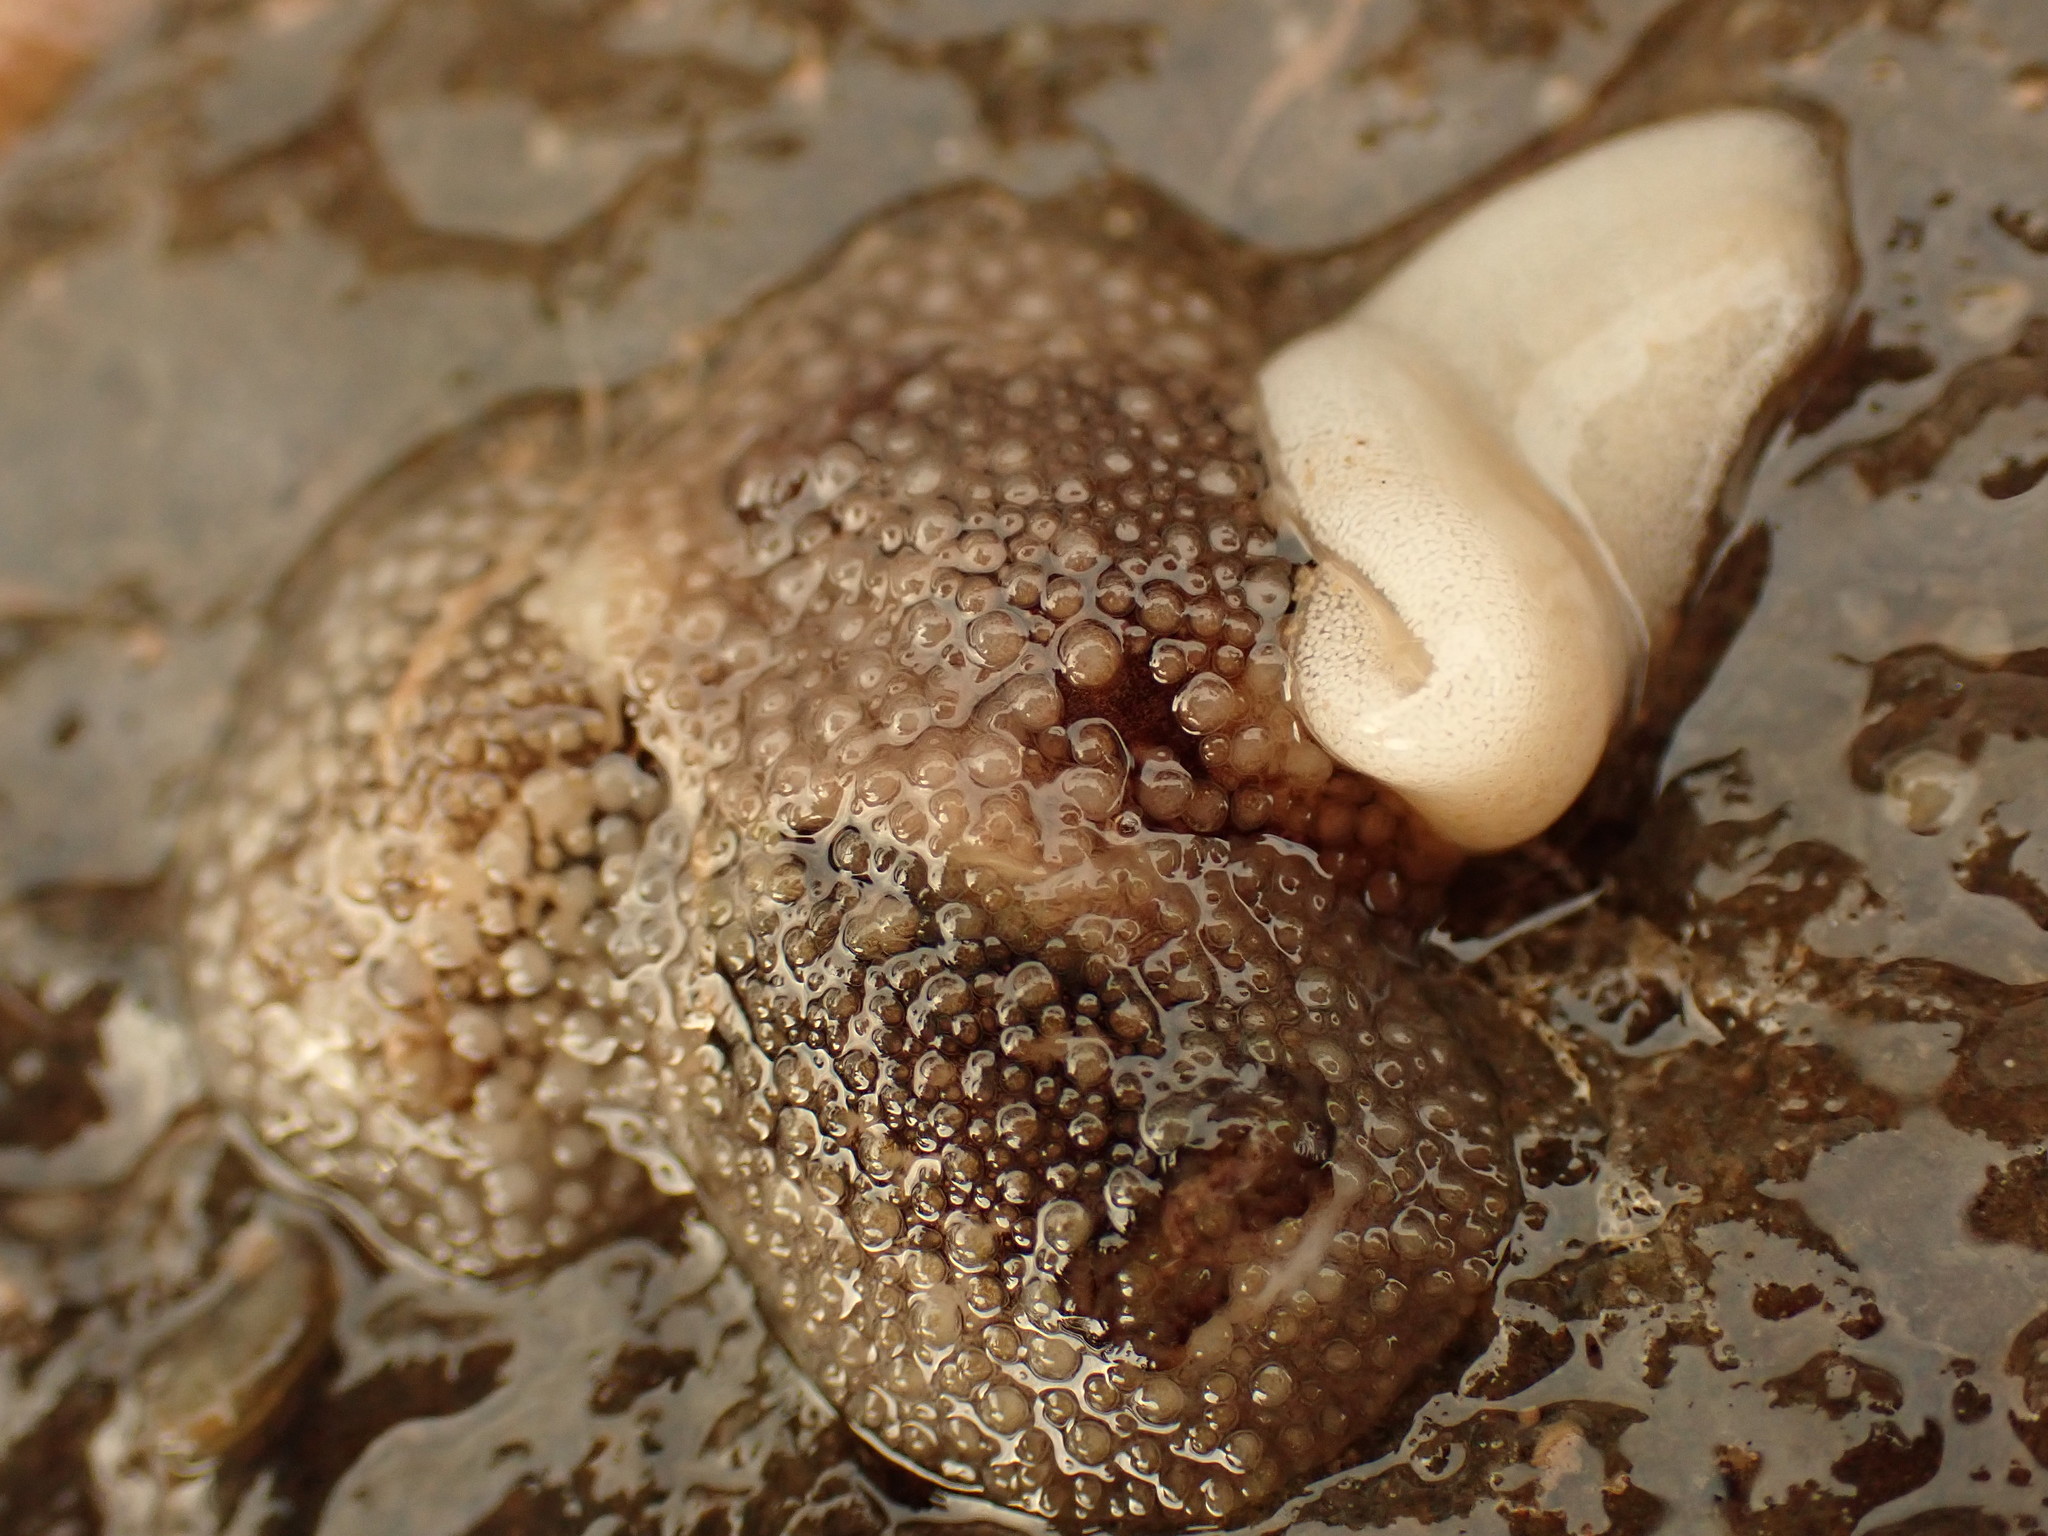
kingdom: Animalia
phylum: Mollusca
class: Gastropoda
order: Nudibranchia
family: Onchidorididae
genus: Onchidoris
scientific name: Onchidoris bilamellata
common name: Barnacle-eating onchidoris
